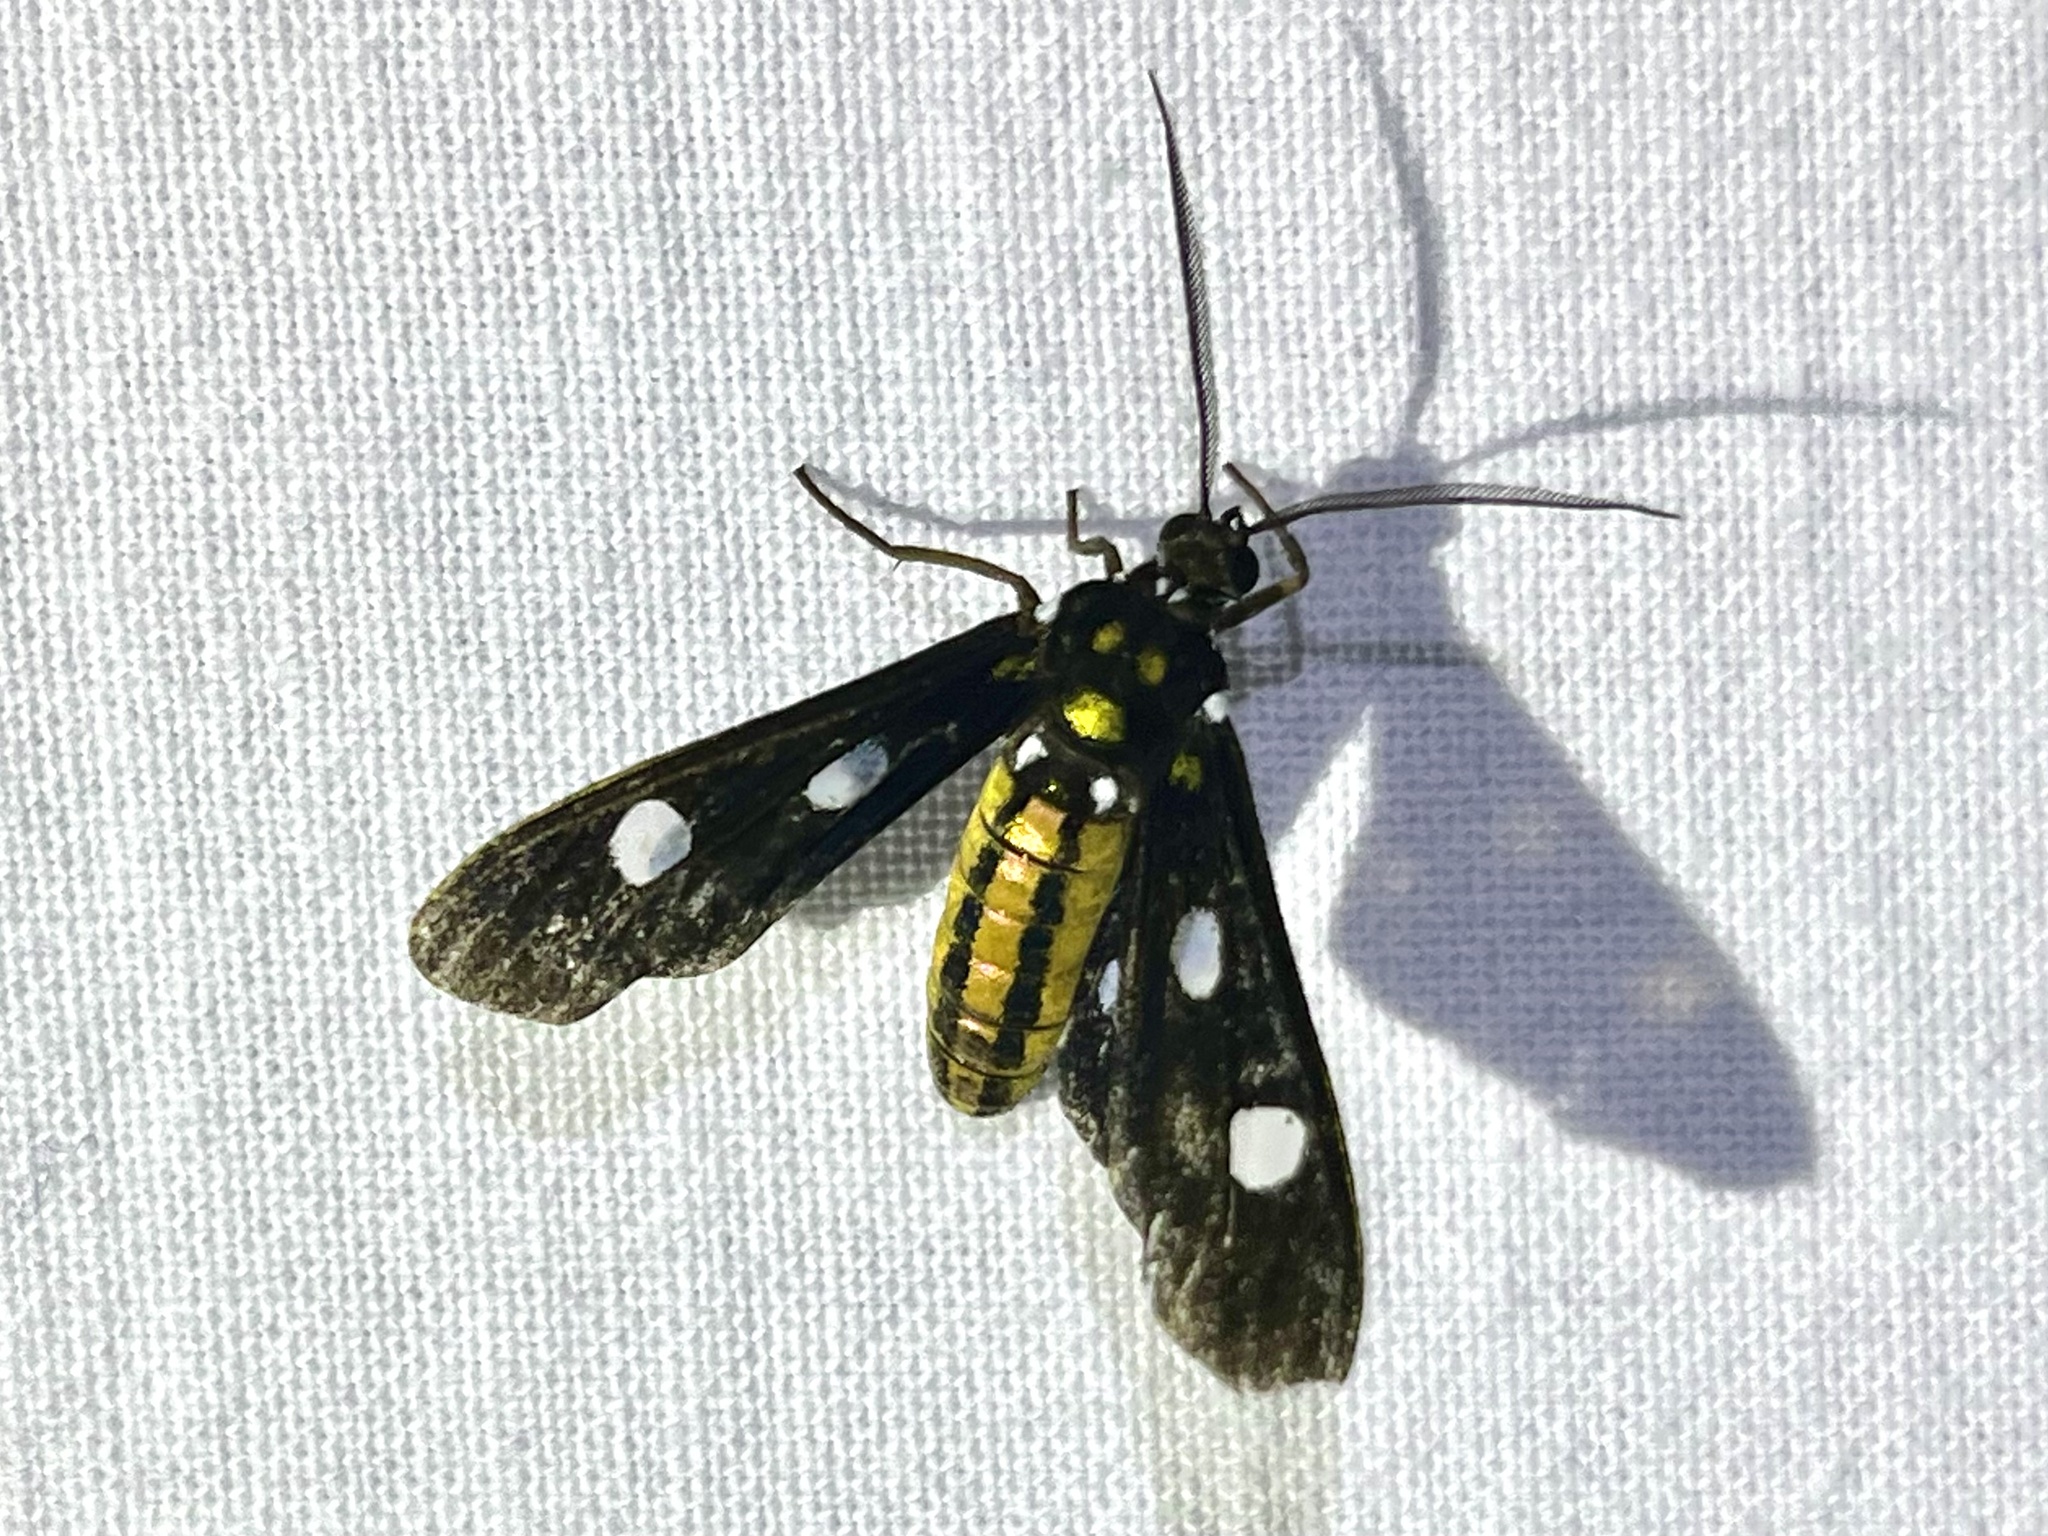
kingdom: Animalia
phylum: Arthropoda
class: Insecta
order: Lepidoptera
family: Erebidae
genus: Calonotos
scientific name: Calonotos metallicus
